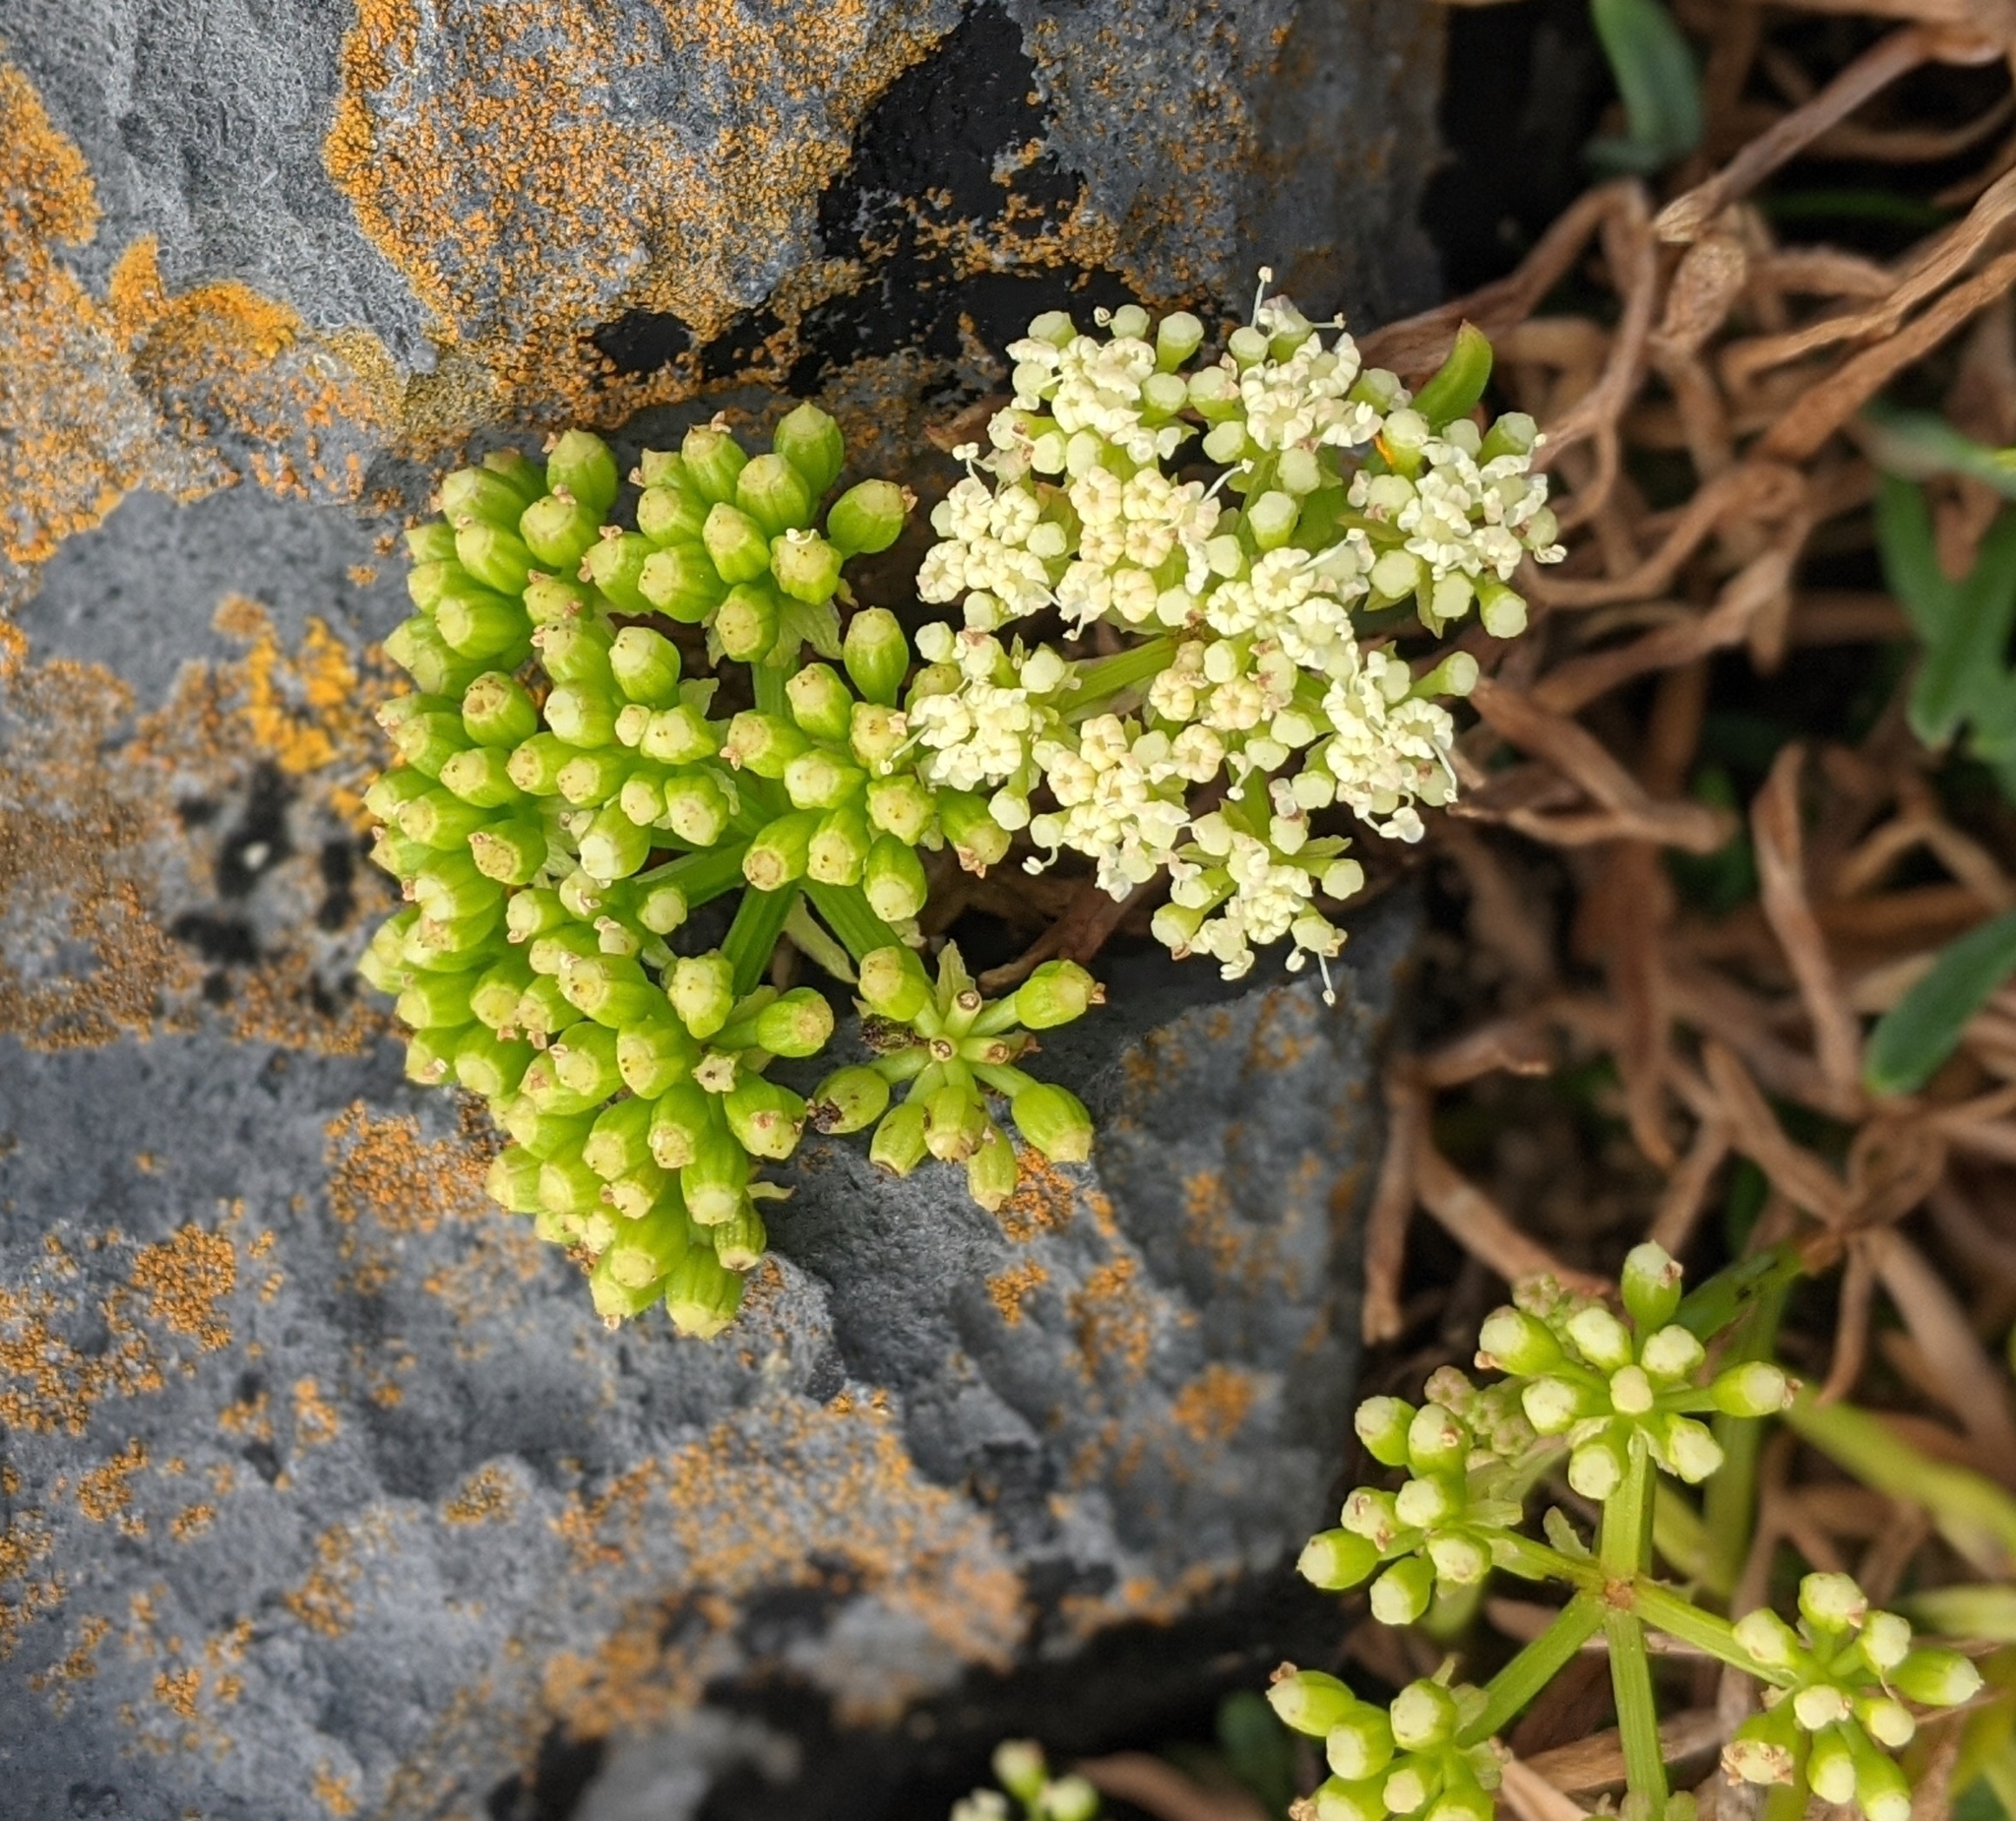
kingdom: Plantae
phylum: Tracheophyta
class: Magnoliopsida
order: Apiales
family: Apiaceae
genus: Crithmum
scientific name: Crithmum maritimum
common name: Rock samphire
